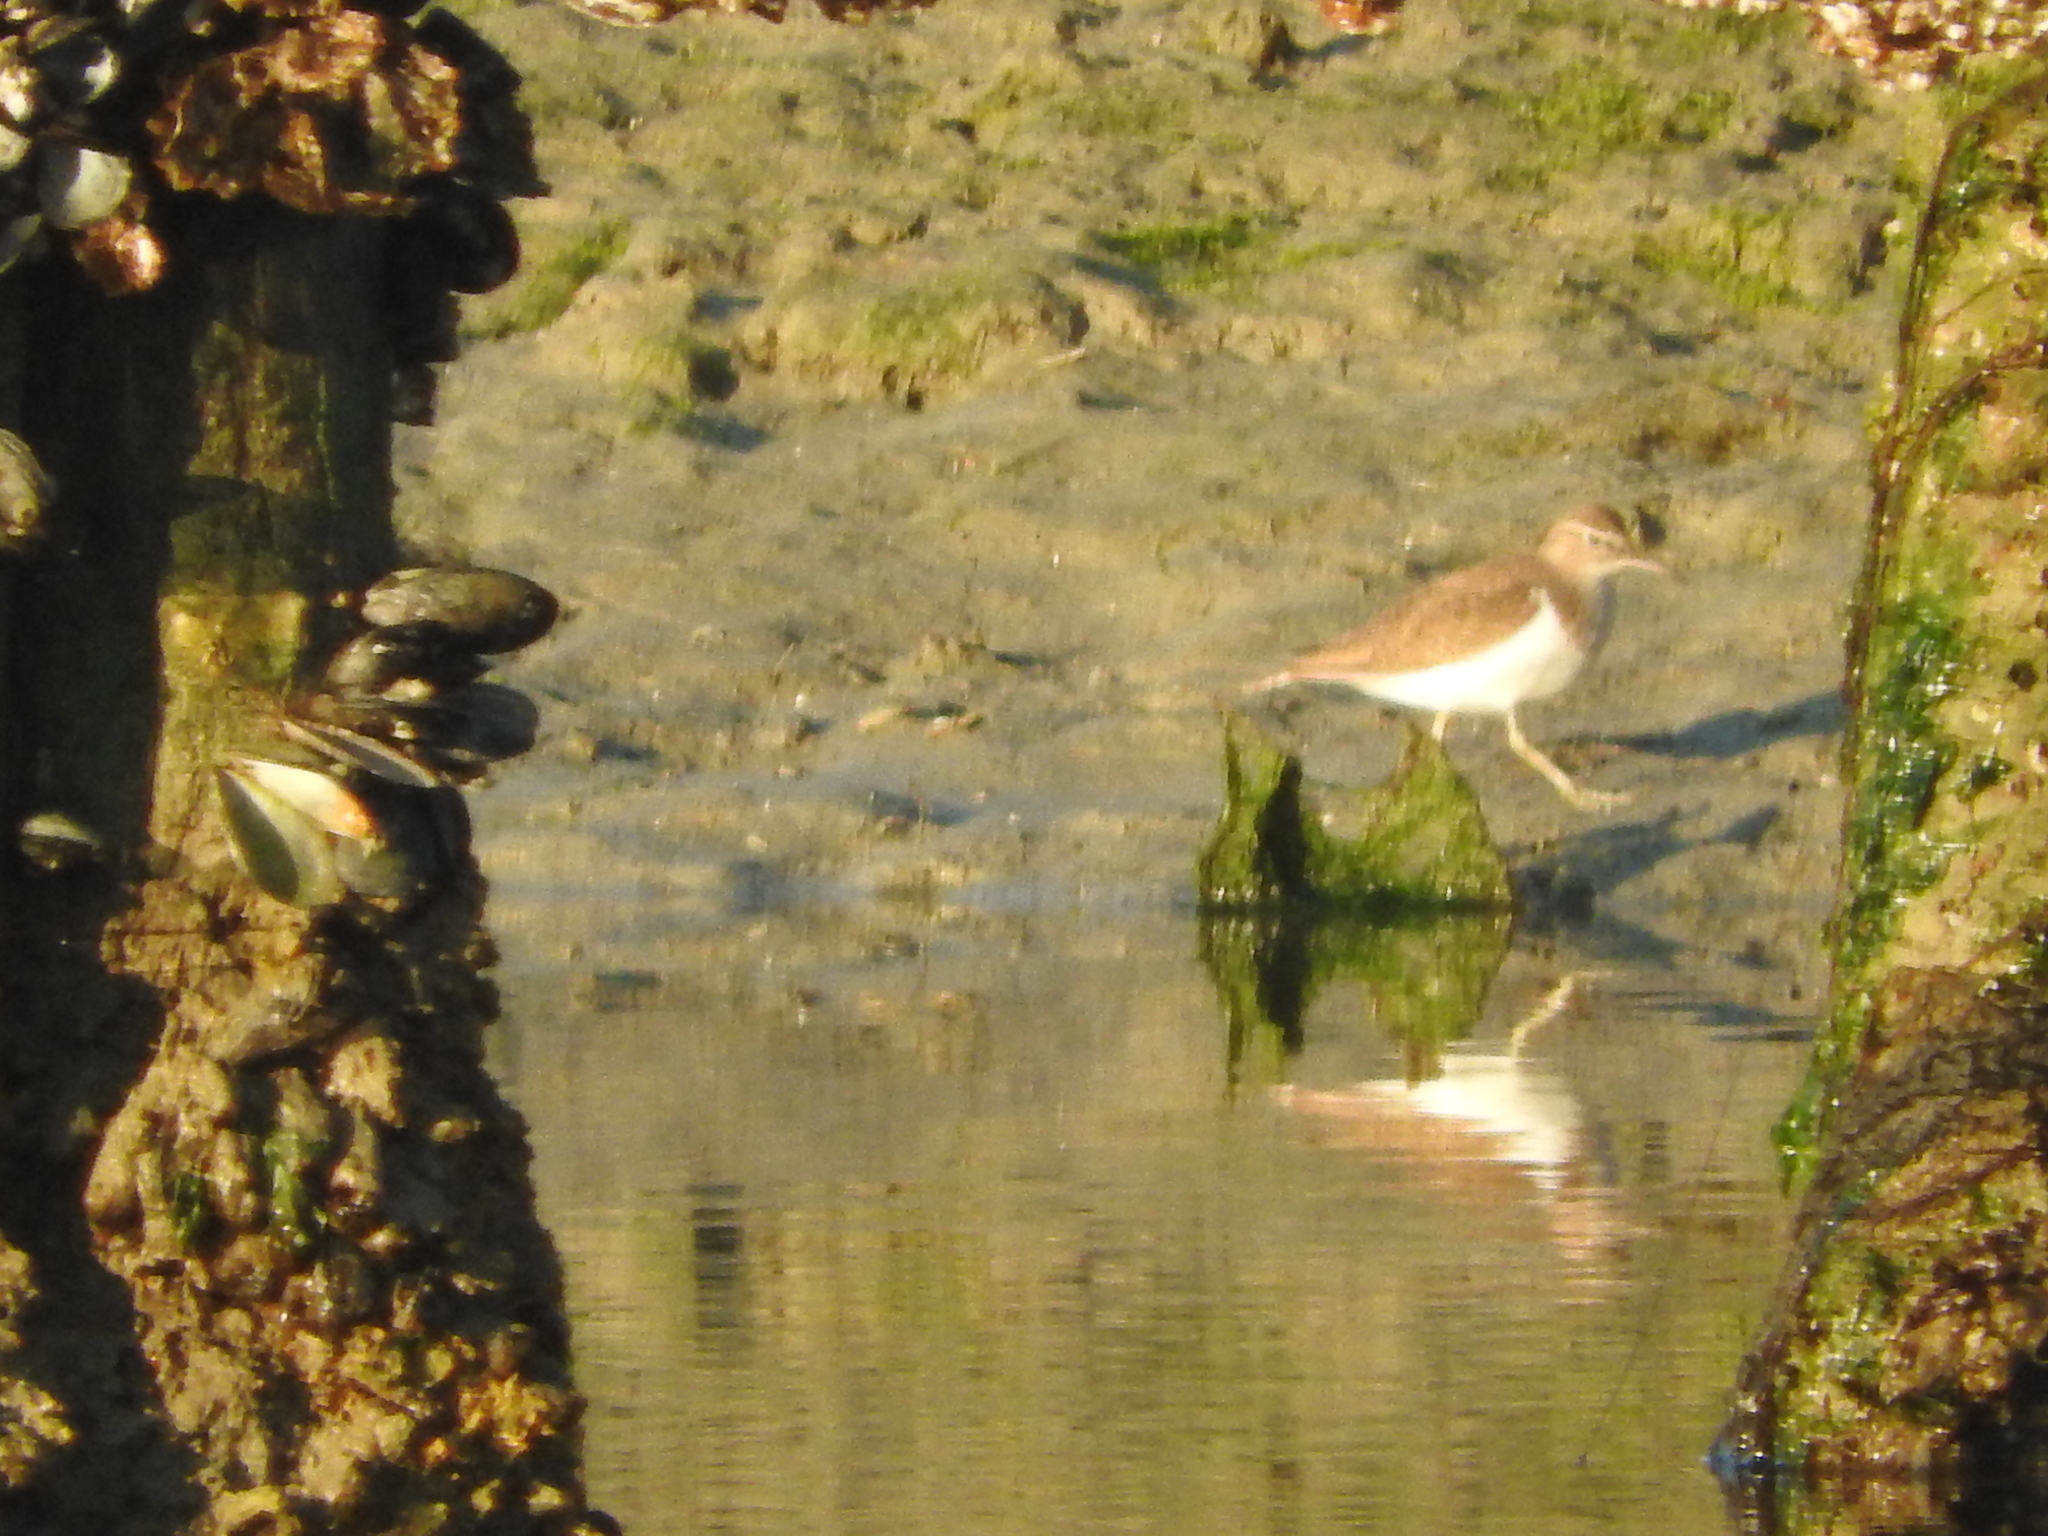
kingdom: Animalia
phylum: Chordata
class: Aves
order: Charadriiformes
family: Scolopacidae
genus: Actitis
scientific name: Actitis hypoleucos
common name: Common sandpiper
